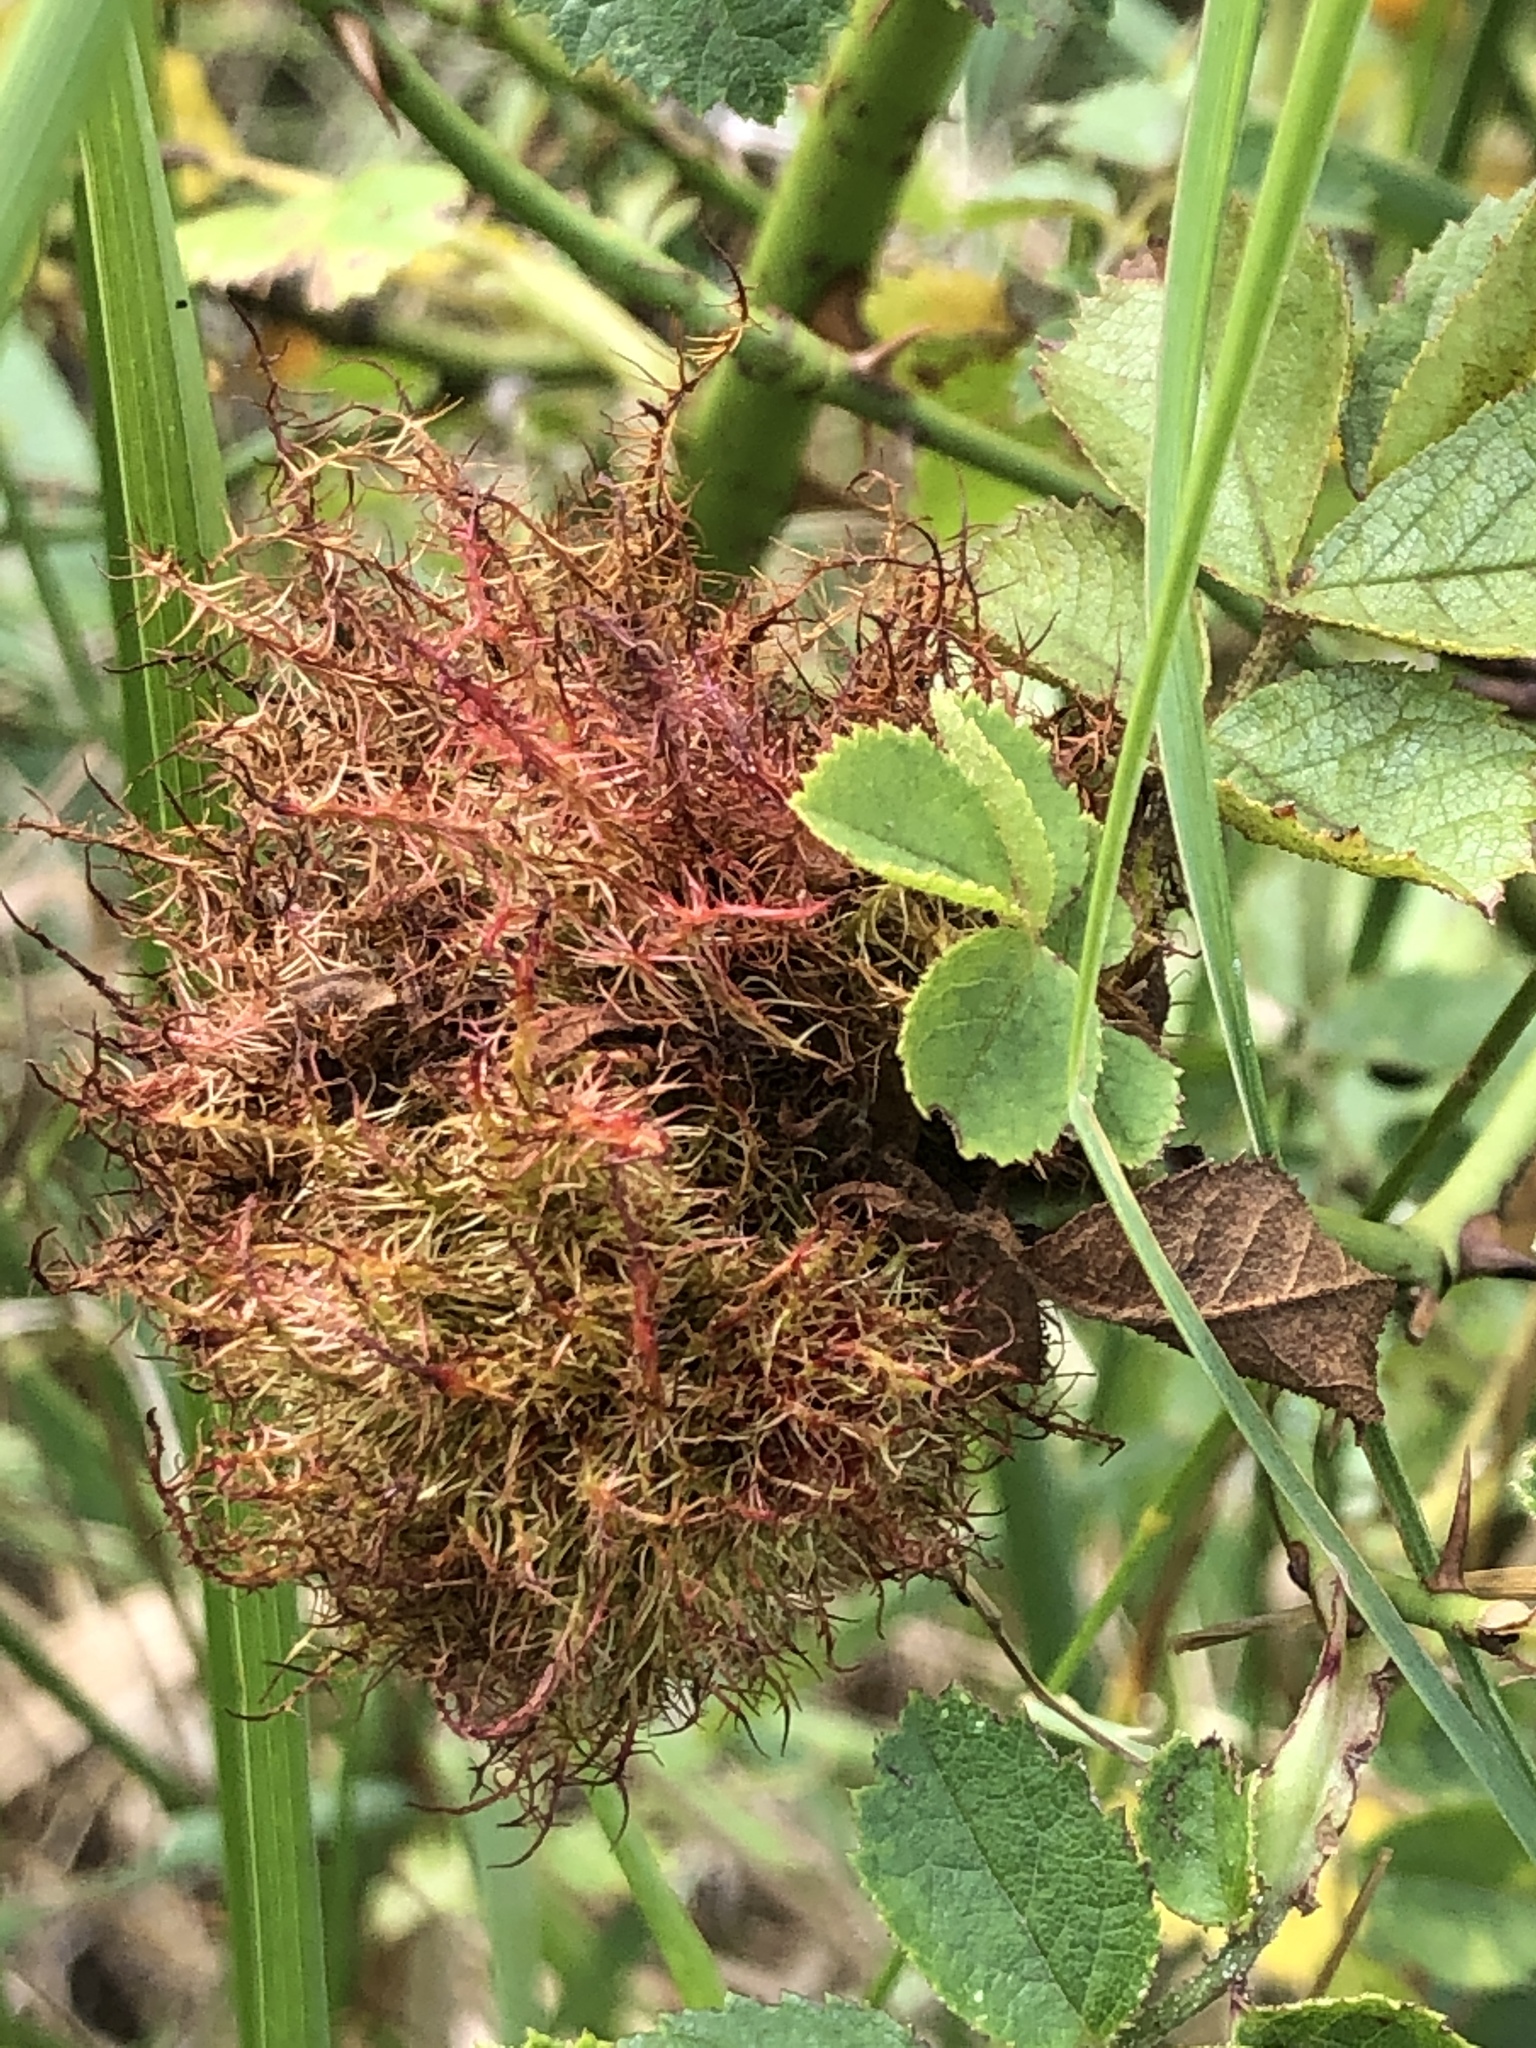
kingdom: Animalia
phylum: Arthropoda
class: Insecta
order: Hymenoptera
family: Cynipidae
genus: Diplolepis
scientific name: Diplolepis rosae
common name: Bedeguar gall
